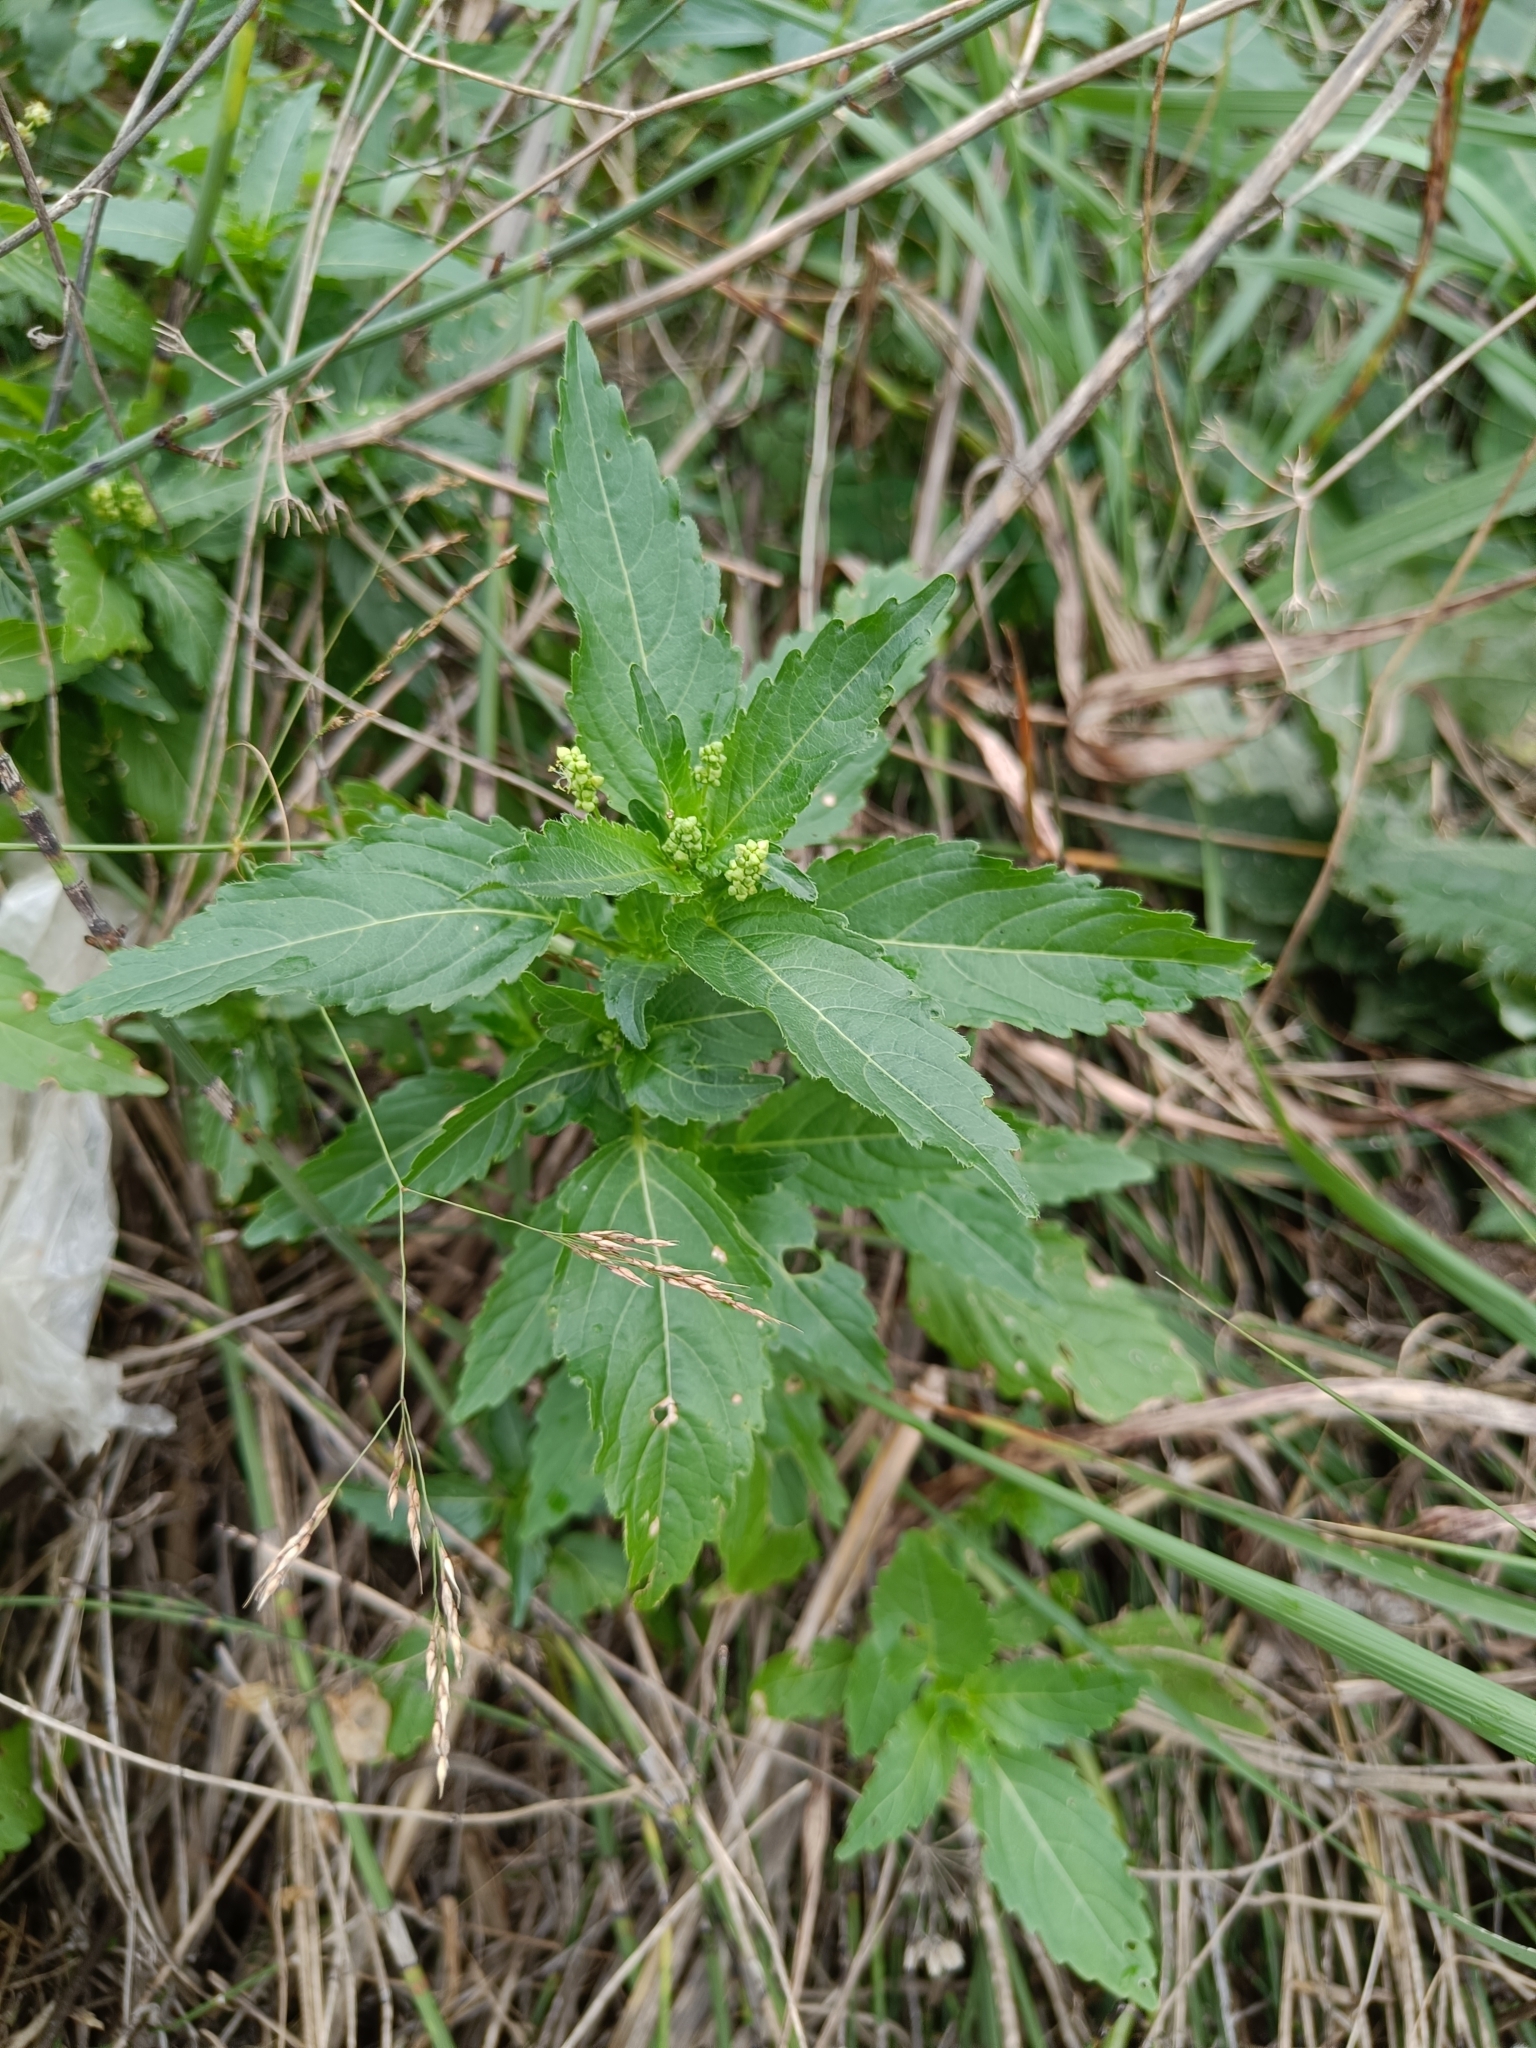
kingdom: Plantae
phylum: Tracheophyta
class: Magnoliopsida
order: Malpighiales
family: Euphorbiaceae
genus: Mercurialis
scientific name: Mercurialis annua
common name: Annual mercury
